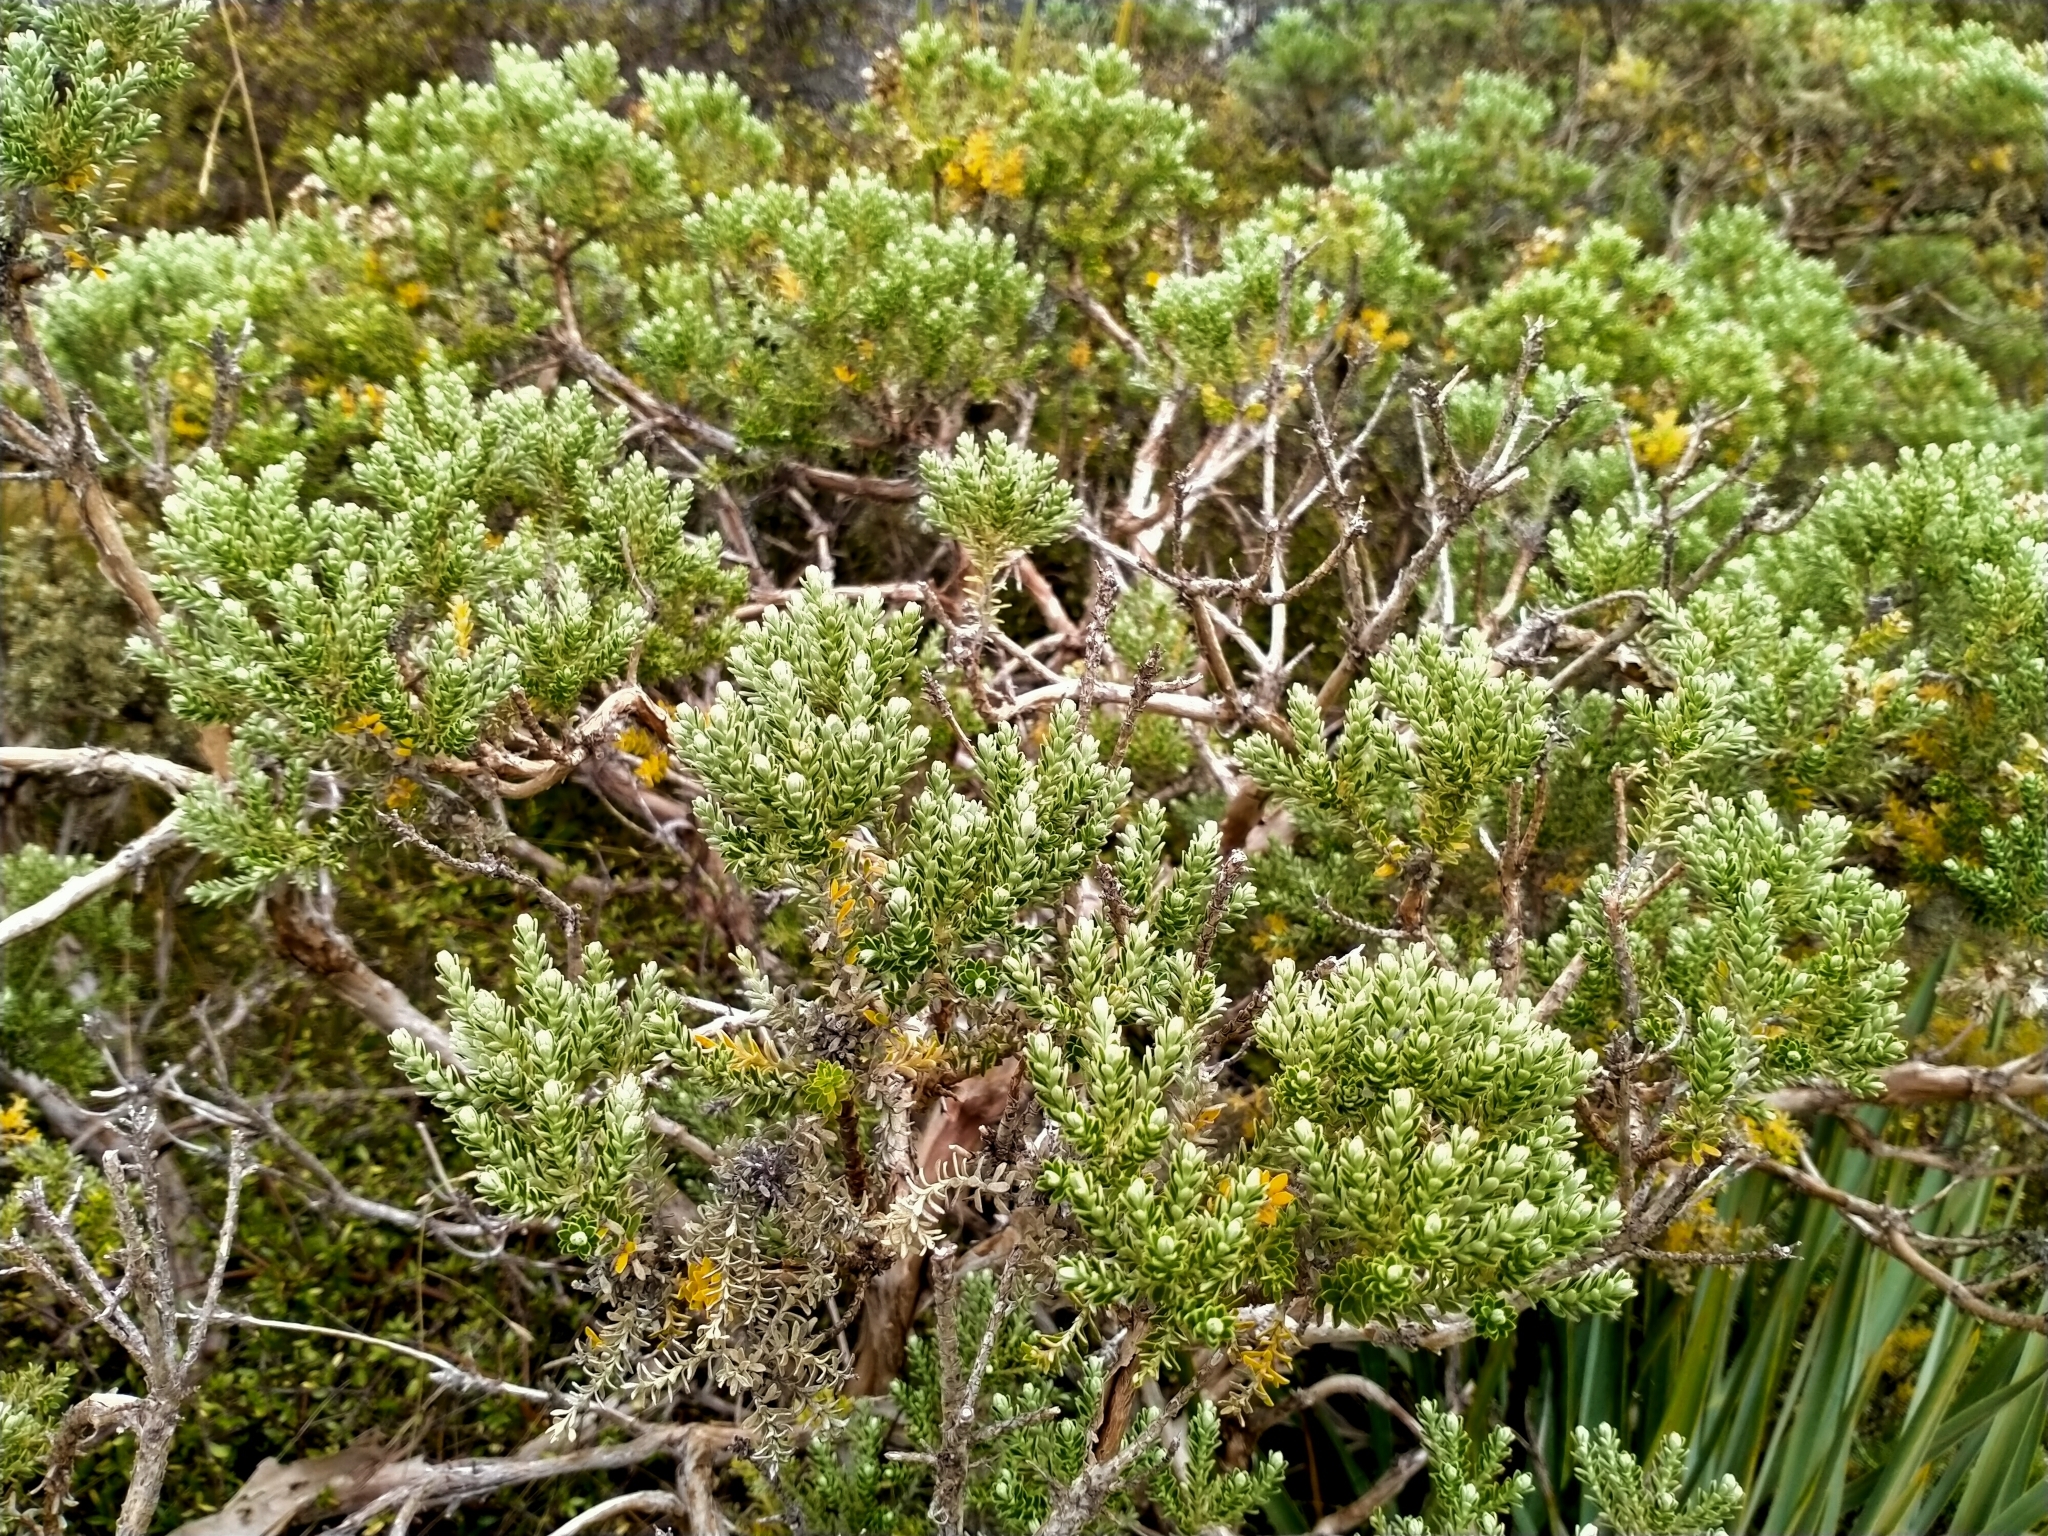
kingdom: Plantae
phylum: Tracheophyta
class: Magnoliopsida
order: Asterales
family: Asteraceae
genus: Brachyglottis
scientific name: Brachyglottis cassinioides
